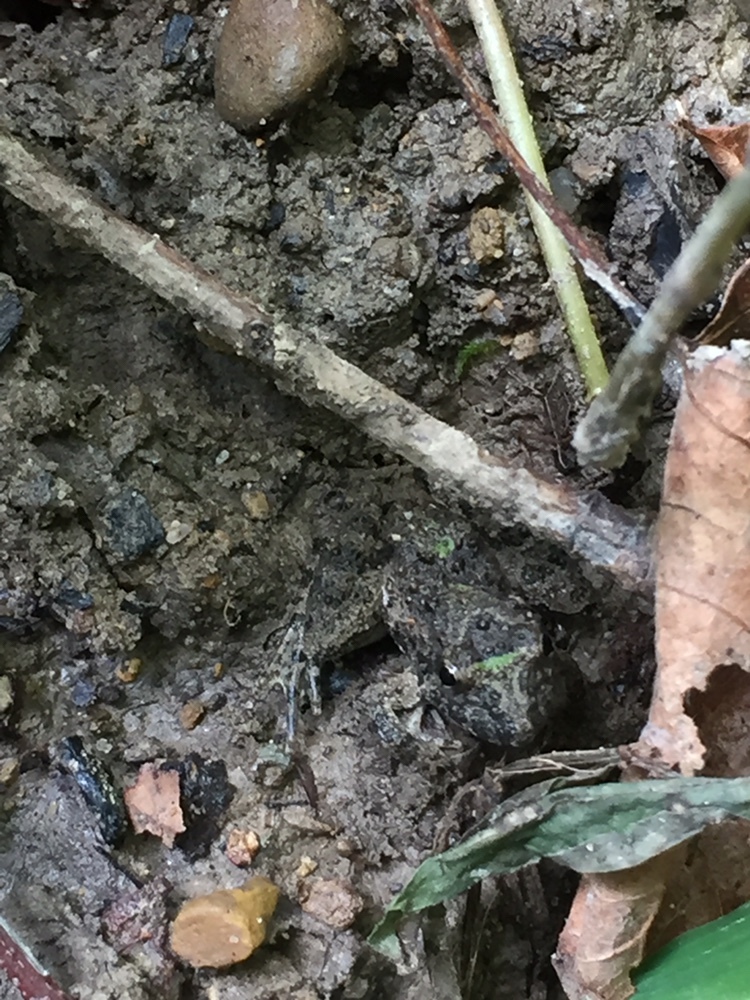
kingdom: Animalia
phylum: Chordata
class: Amphibia
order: Anura
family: Hylidae
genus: Acris
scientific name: Acris blanchardi
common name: Blanchard's cricket frog
